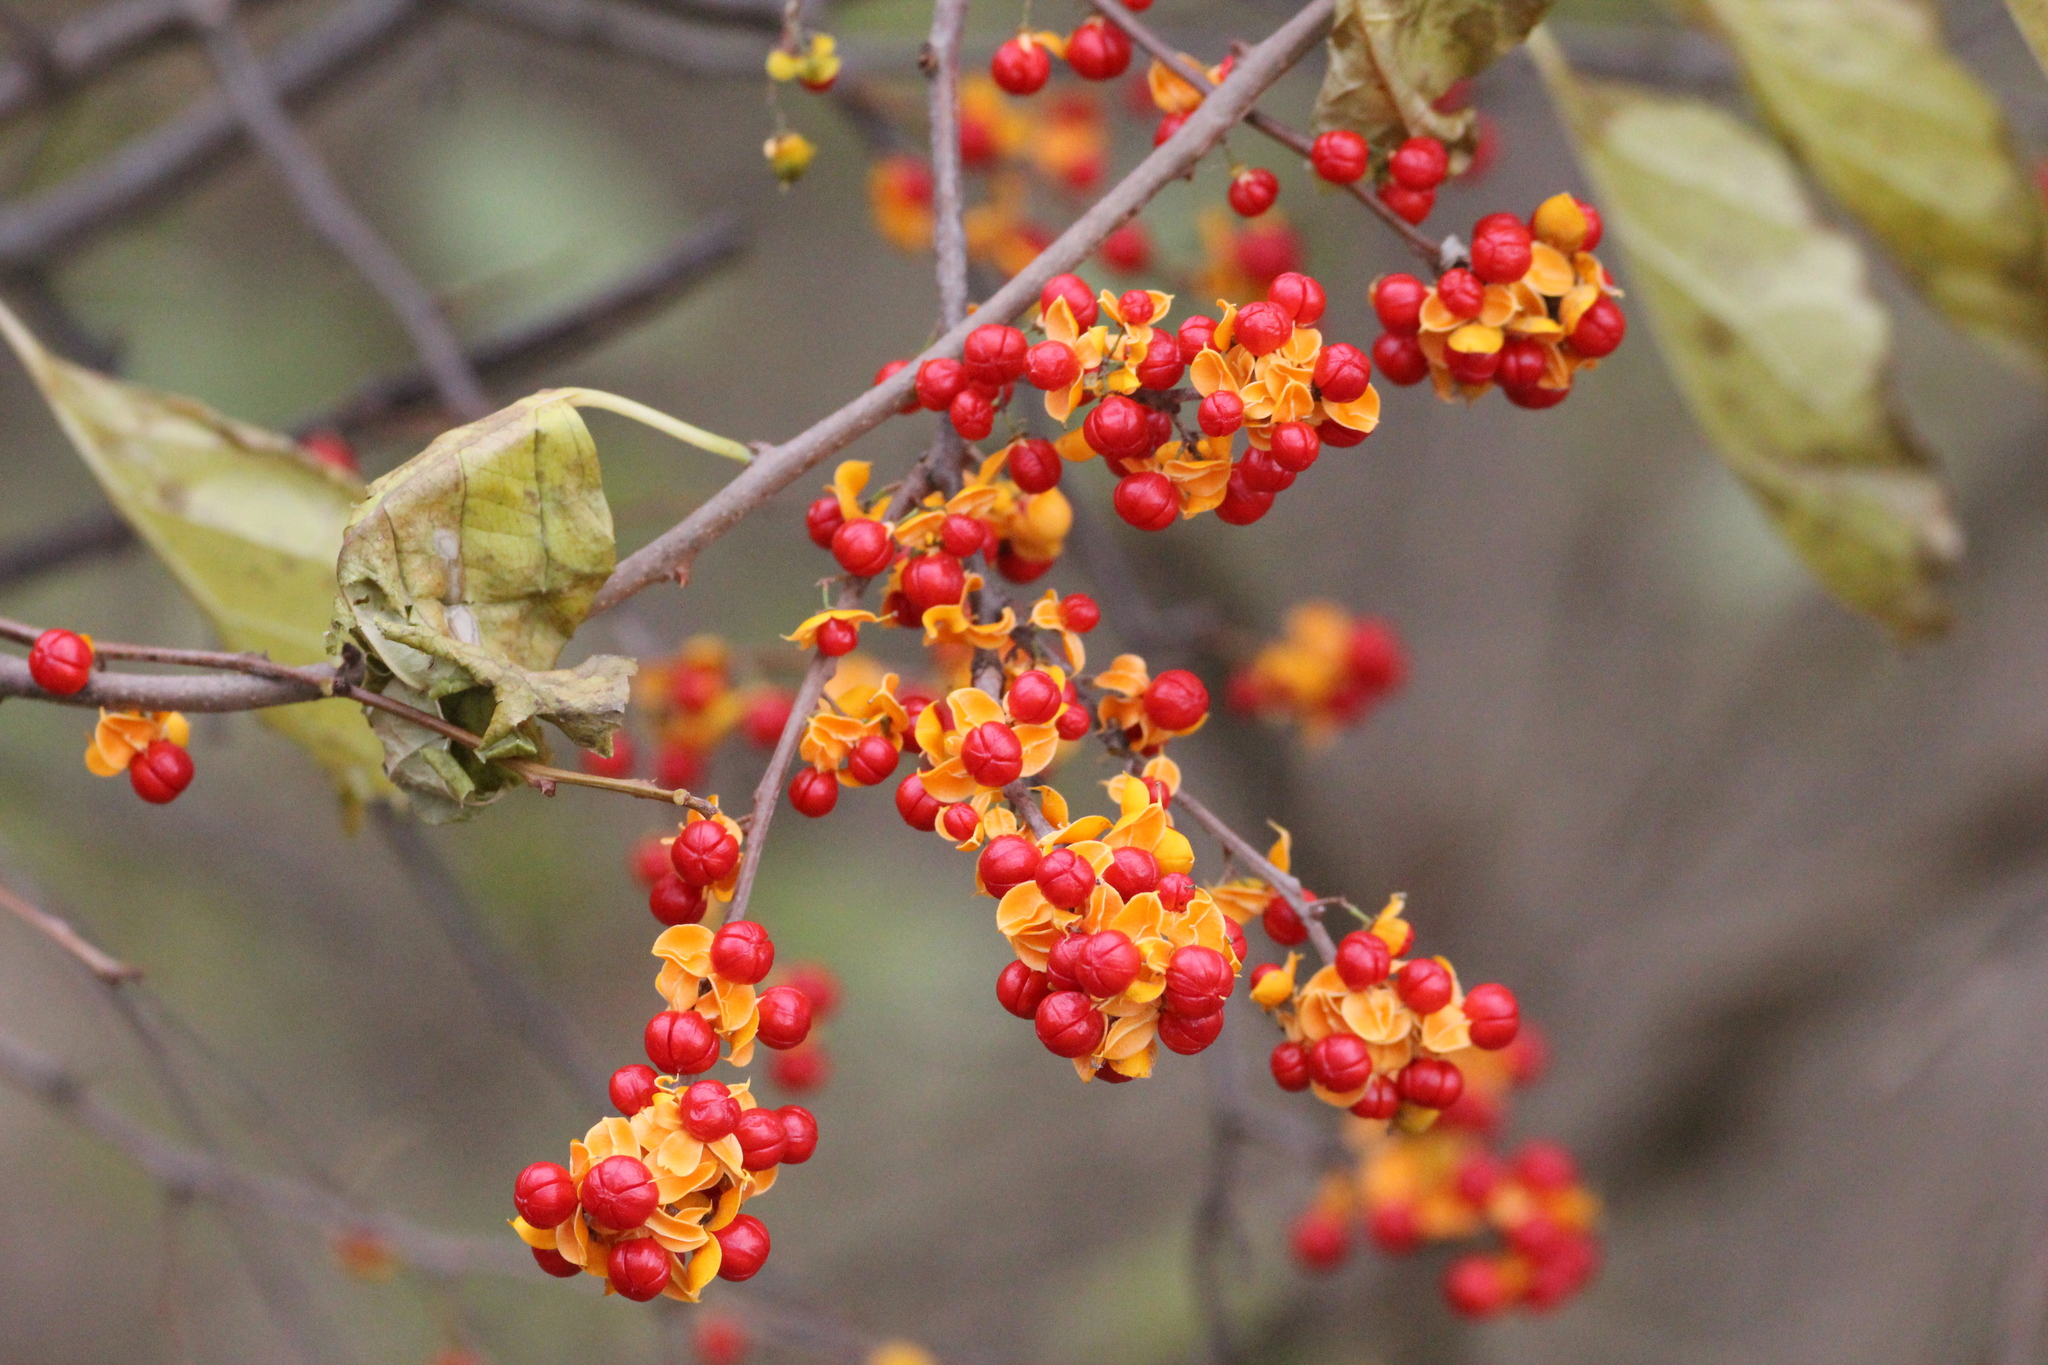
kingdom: Plantae
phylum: Tracheophyta
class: Magnoliopsida
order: Celastrales
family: Celastraceae
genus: Celastrus
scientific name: Celastrus orbiculatus
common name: Oriental bittersweet
